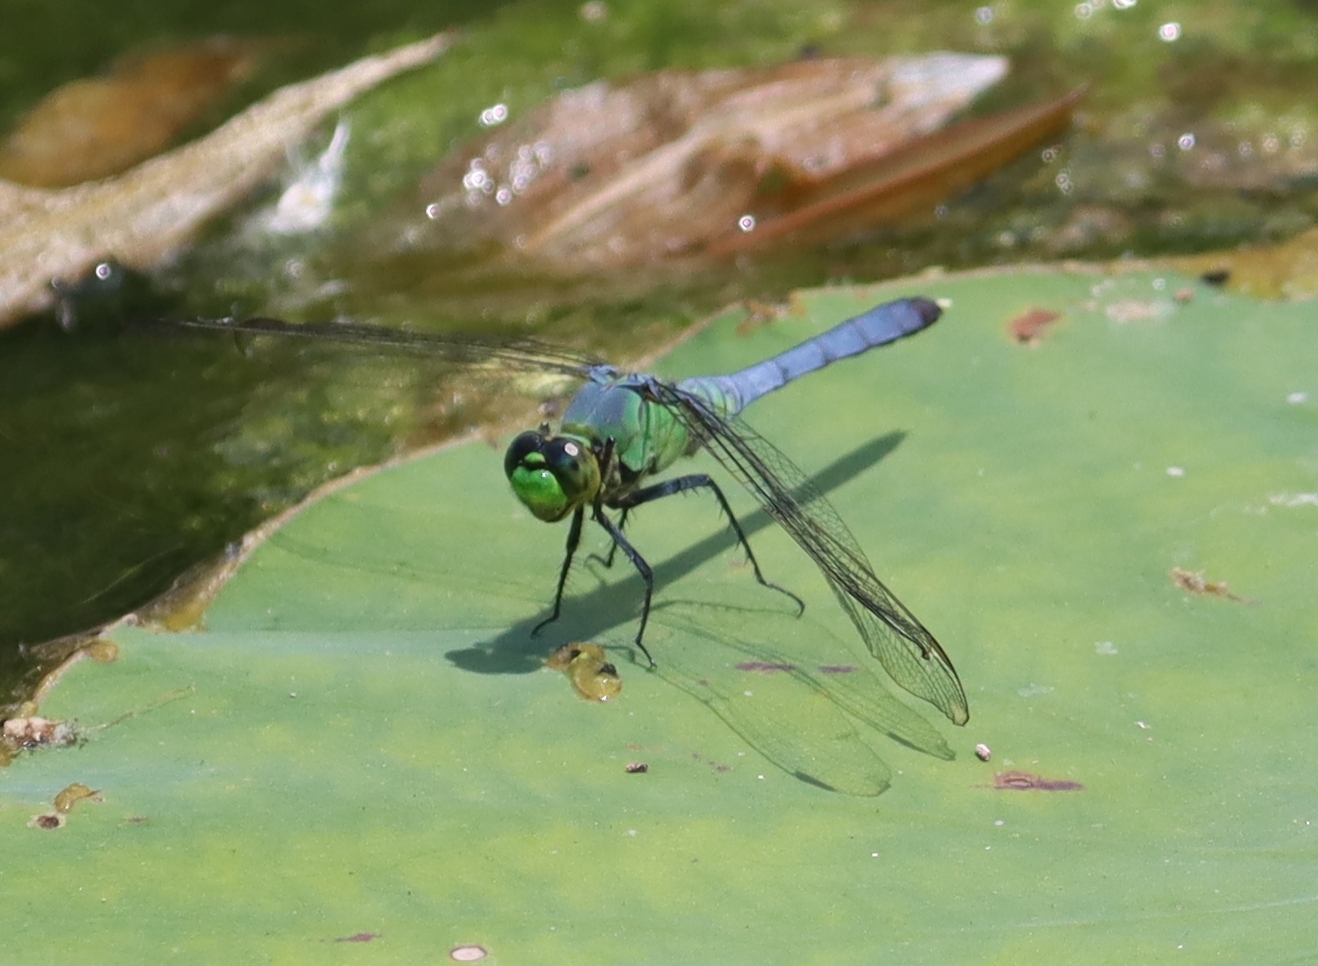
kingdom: Animalia
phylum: Arthropoda
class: Insecta
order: Odonata
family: Libellulidae
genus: Erythemis
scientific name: Erythemis simplicicollis
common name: Eastern pondhawk
